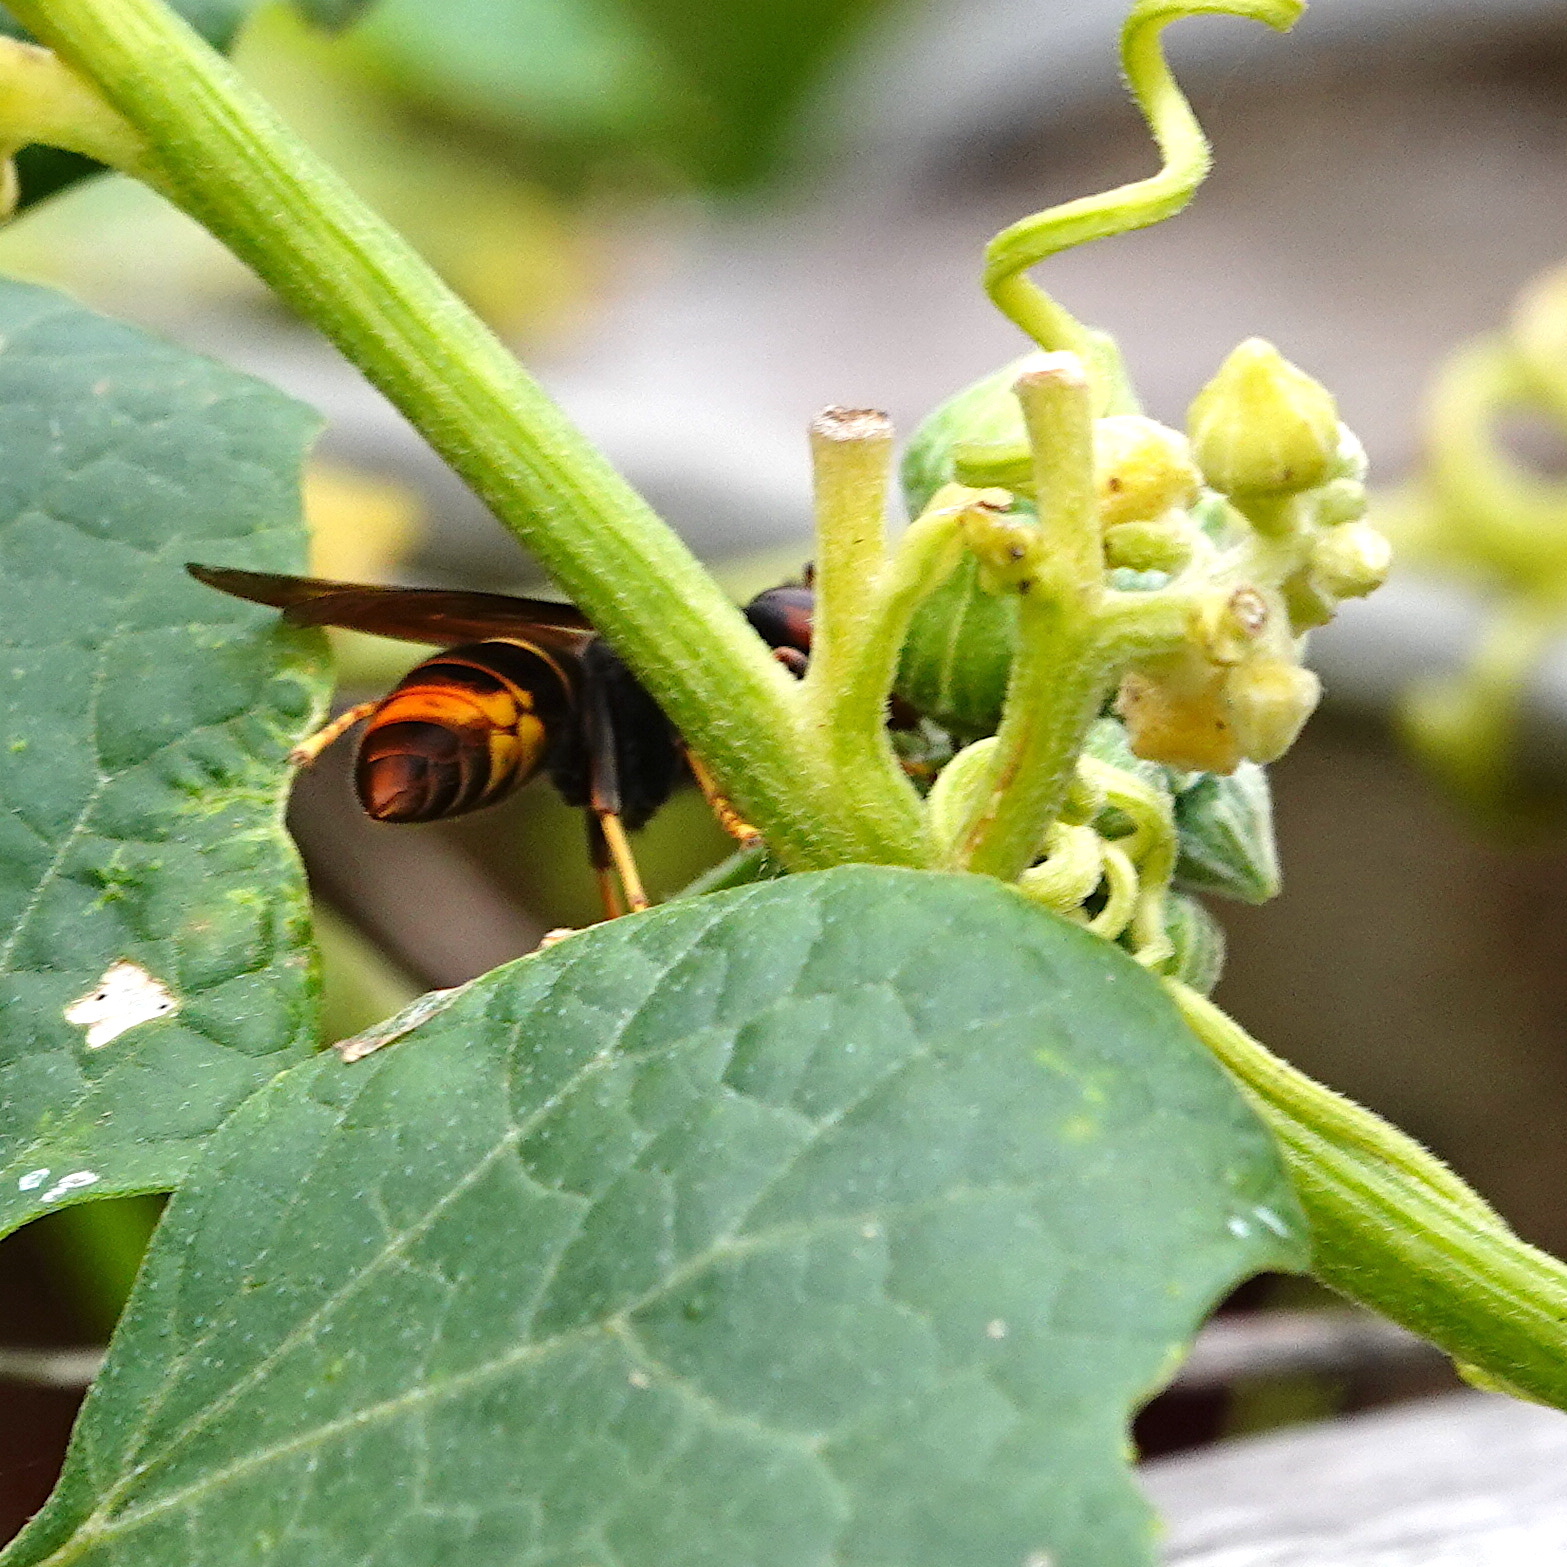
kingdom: Animalia
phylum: Arthropoda
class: Insecta
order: Hymenoptera
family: Vespidae
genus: Vespa
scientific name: Vespa velutina
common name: Asian hornet
